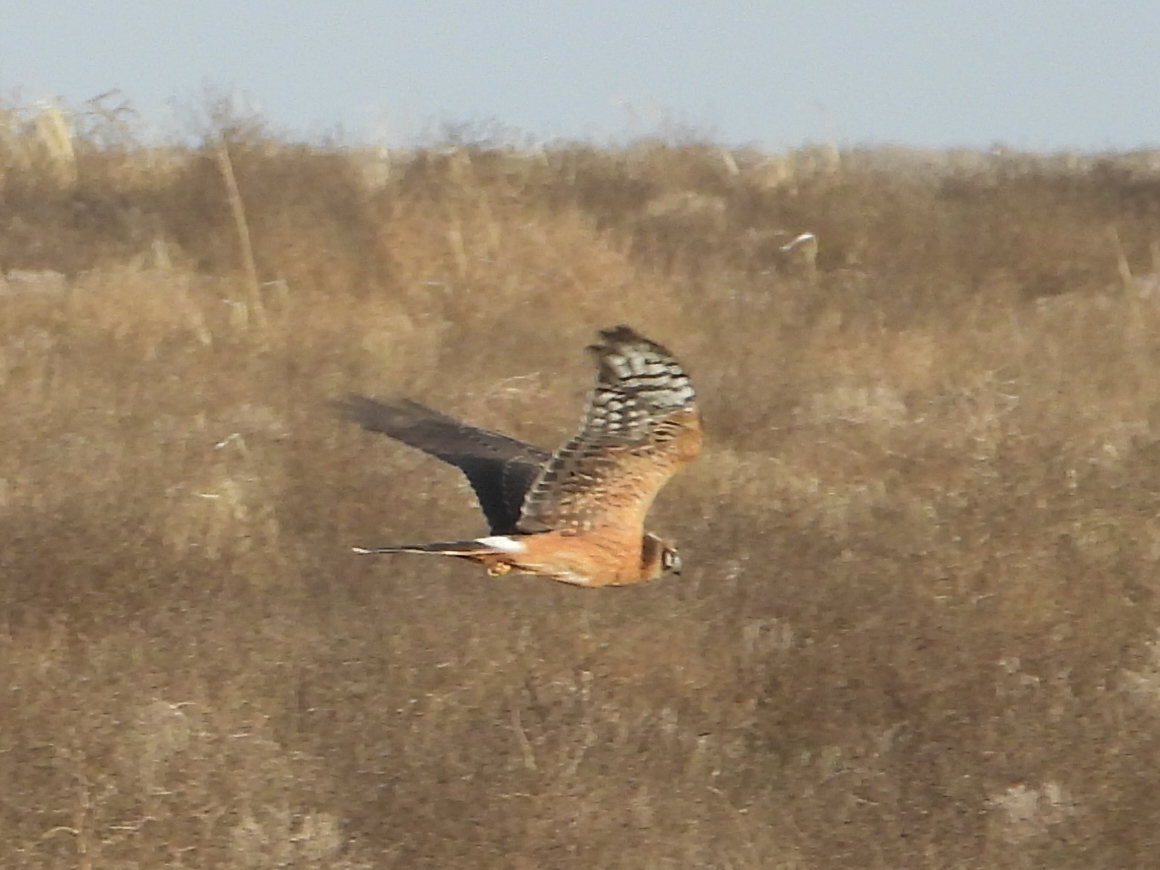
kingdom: Animalia
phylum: Chordata
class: Aves
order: Accipitriformes
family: Accipitridae
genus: Circus
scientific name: Circus pygargus
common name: Montagu's harrier
